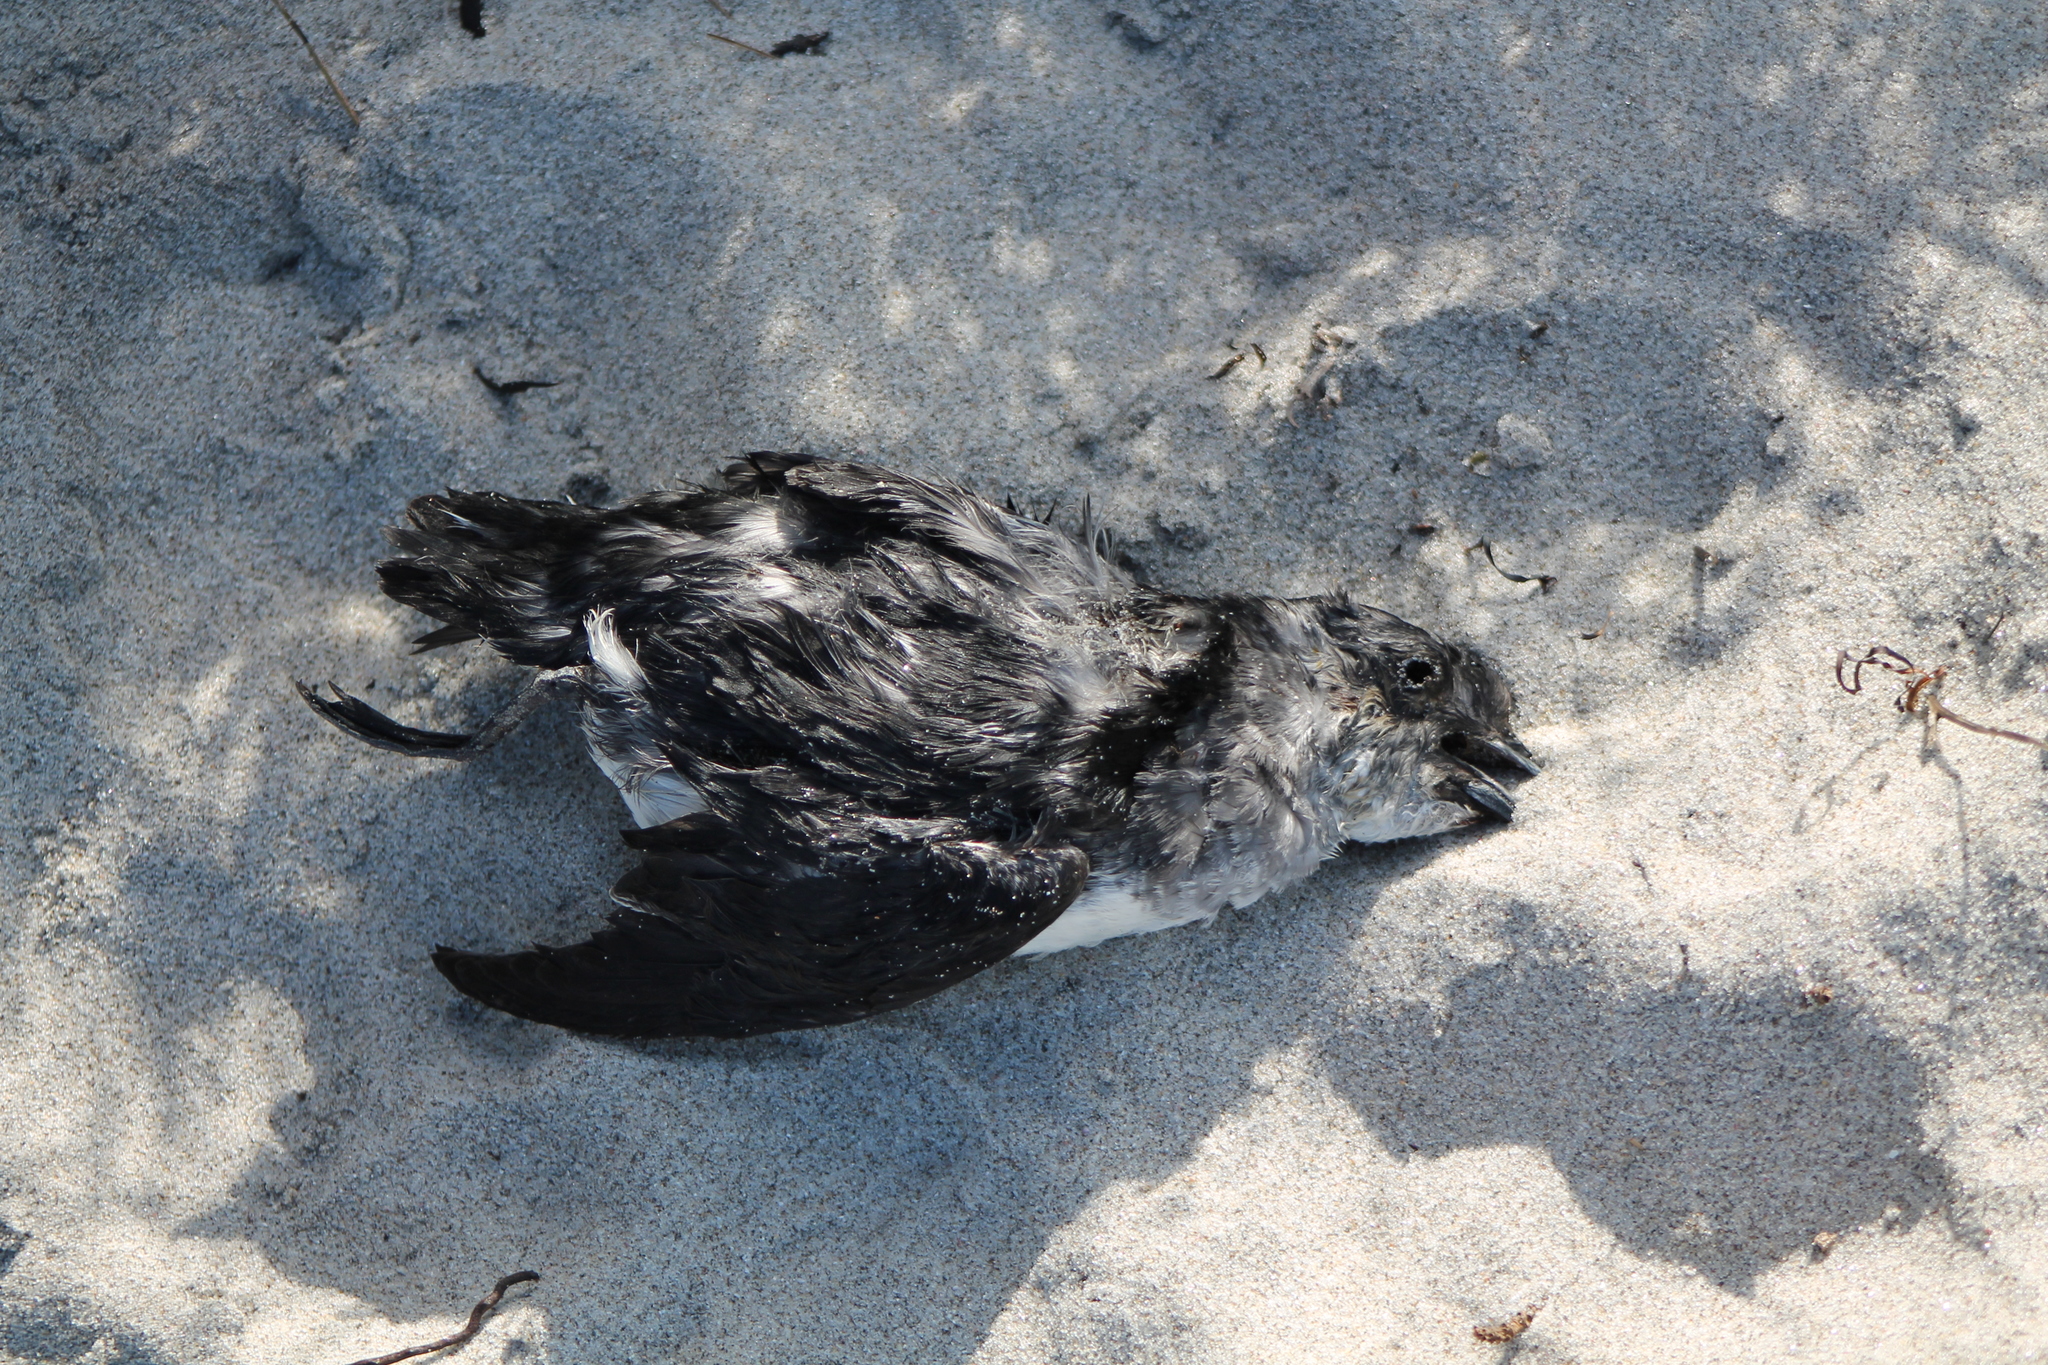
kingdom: Animalia
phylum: Chordata
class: Aves
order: Procellariiformes
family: Pelecanoididae
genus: Pelecanoides
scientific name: Pelecanoides urinatrix
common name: Common diving-petrel
